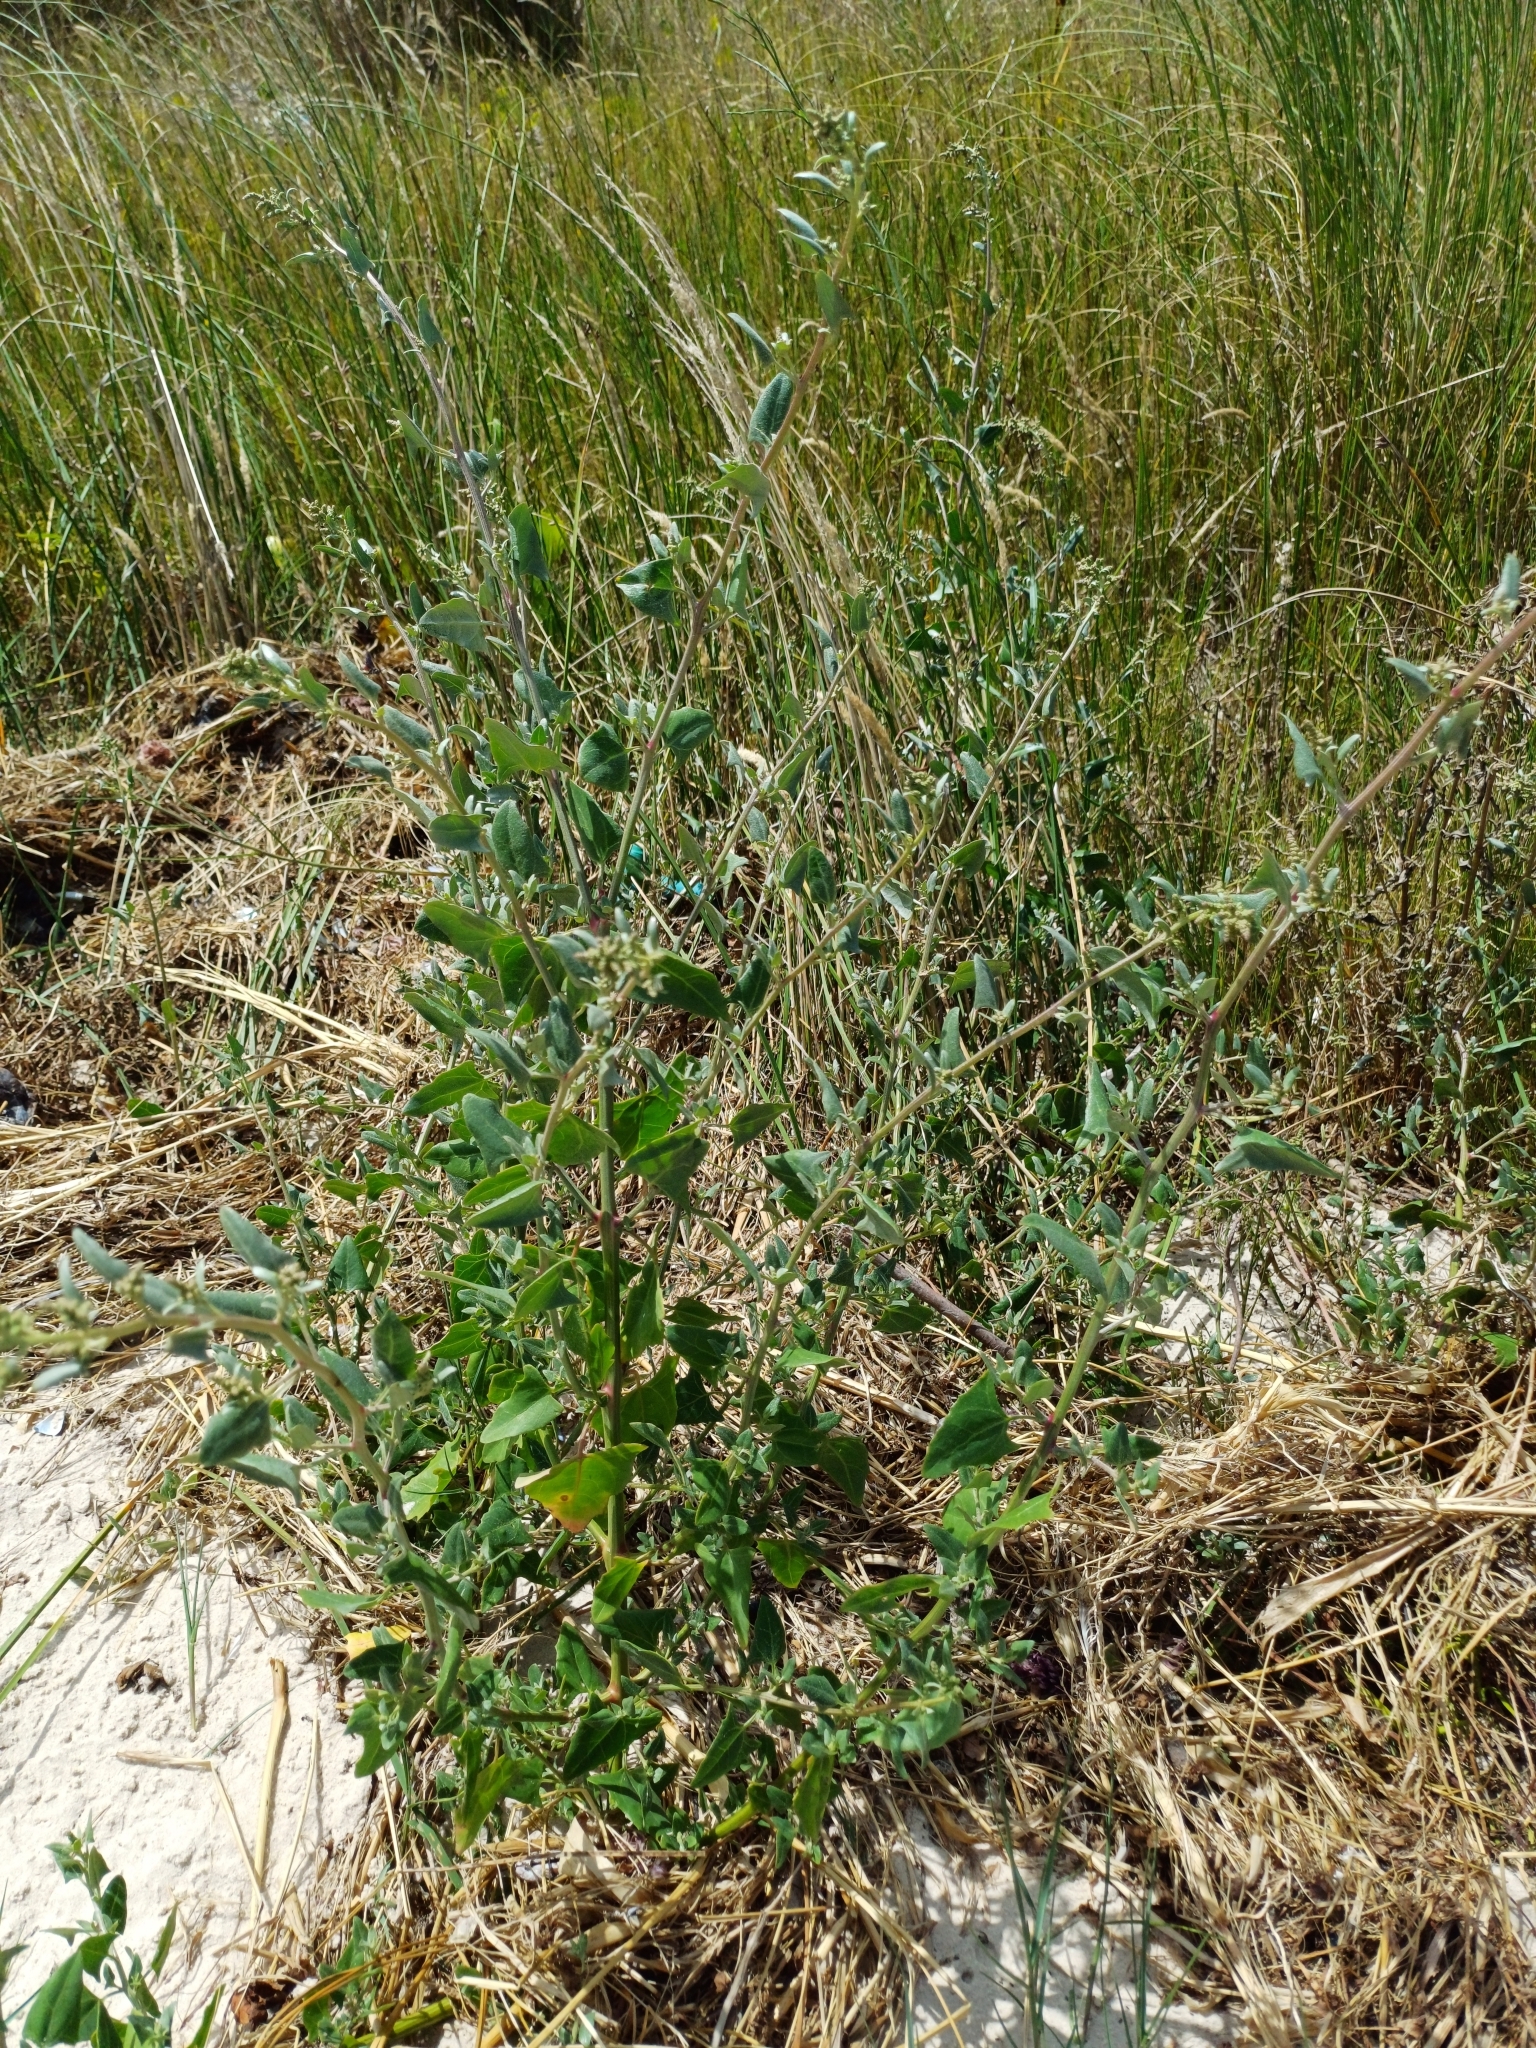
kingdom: Plantae
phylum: Tracheophyta
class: Magnoliopsida
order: Caryophyllales
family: Amaranthaceae
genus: Atriplex
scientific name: Atriplex prostrata
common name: Spear-leaved orache
